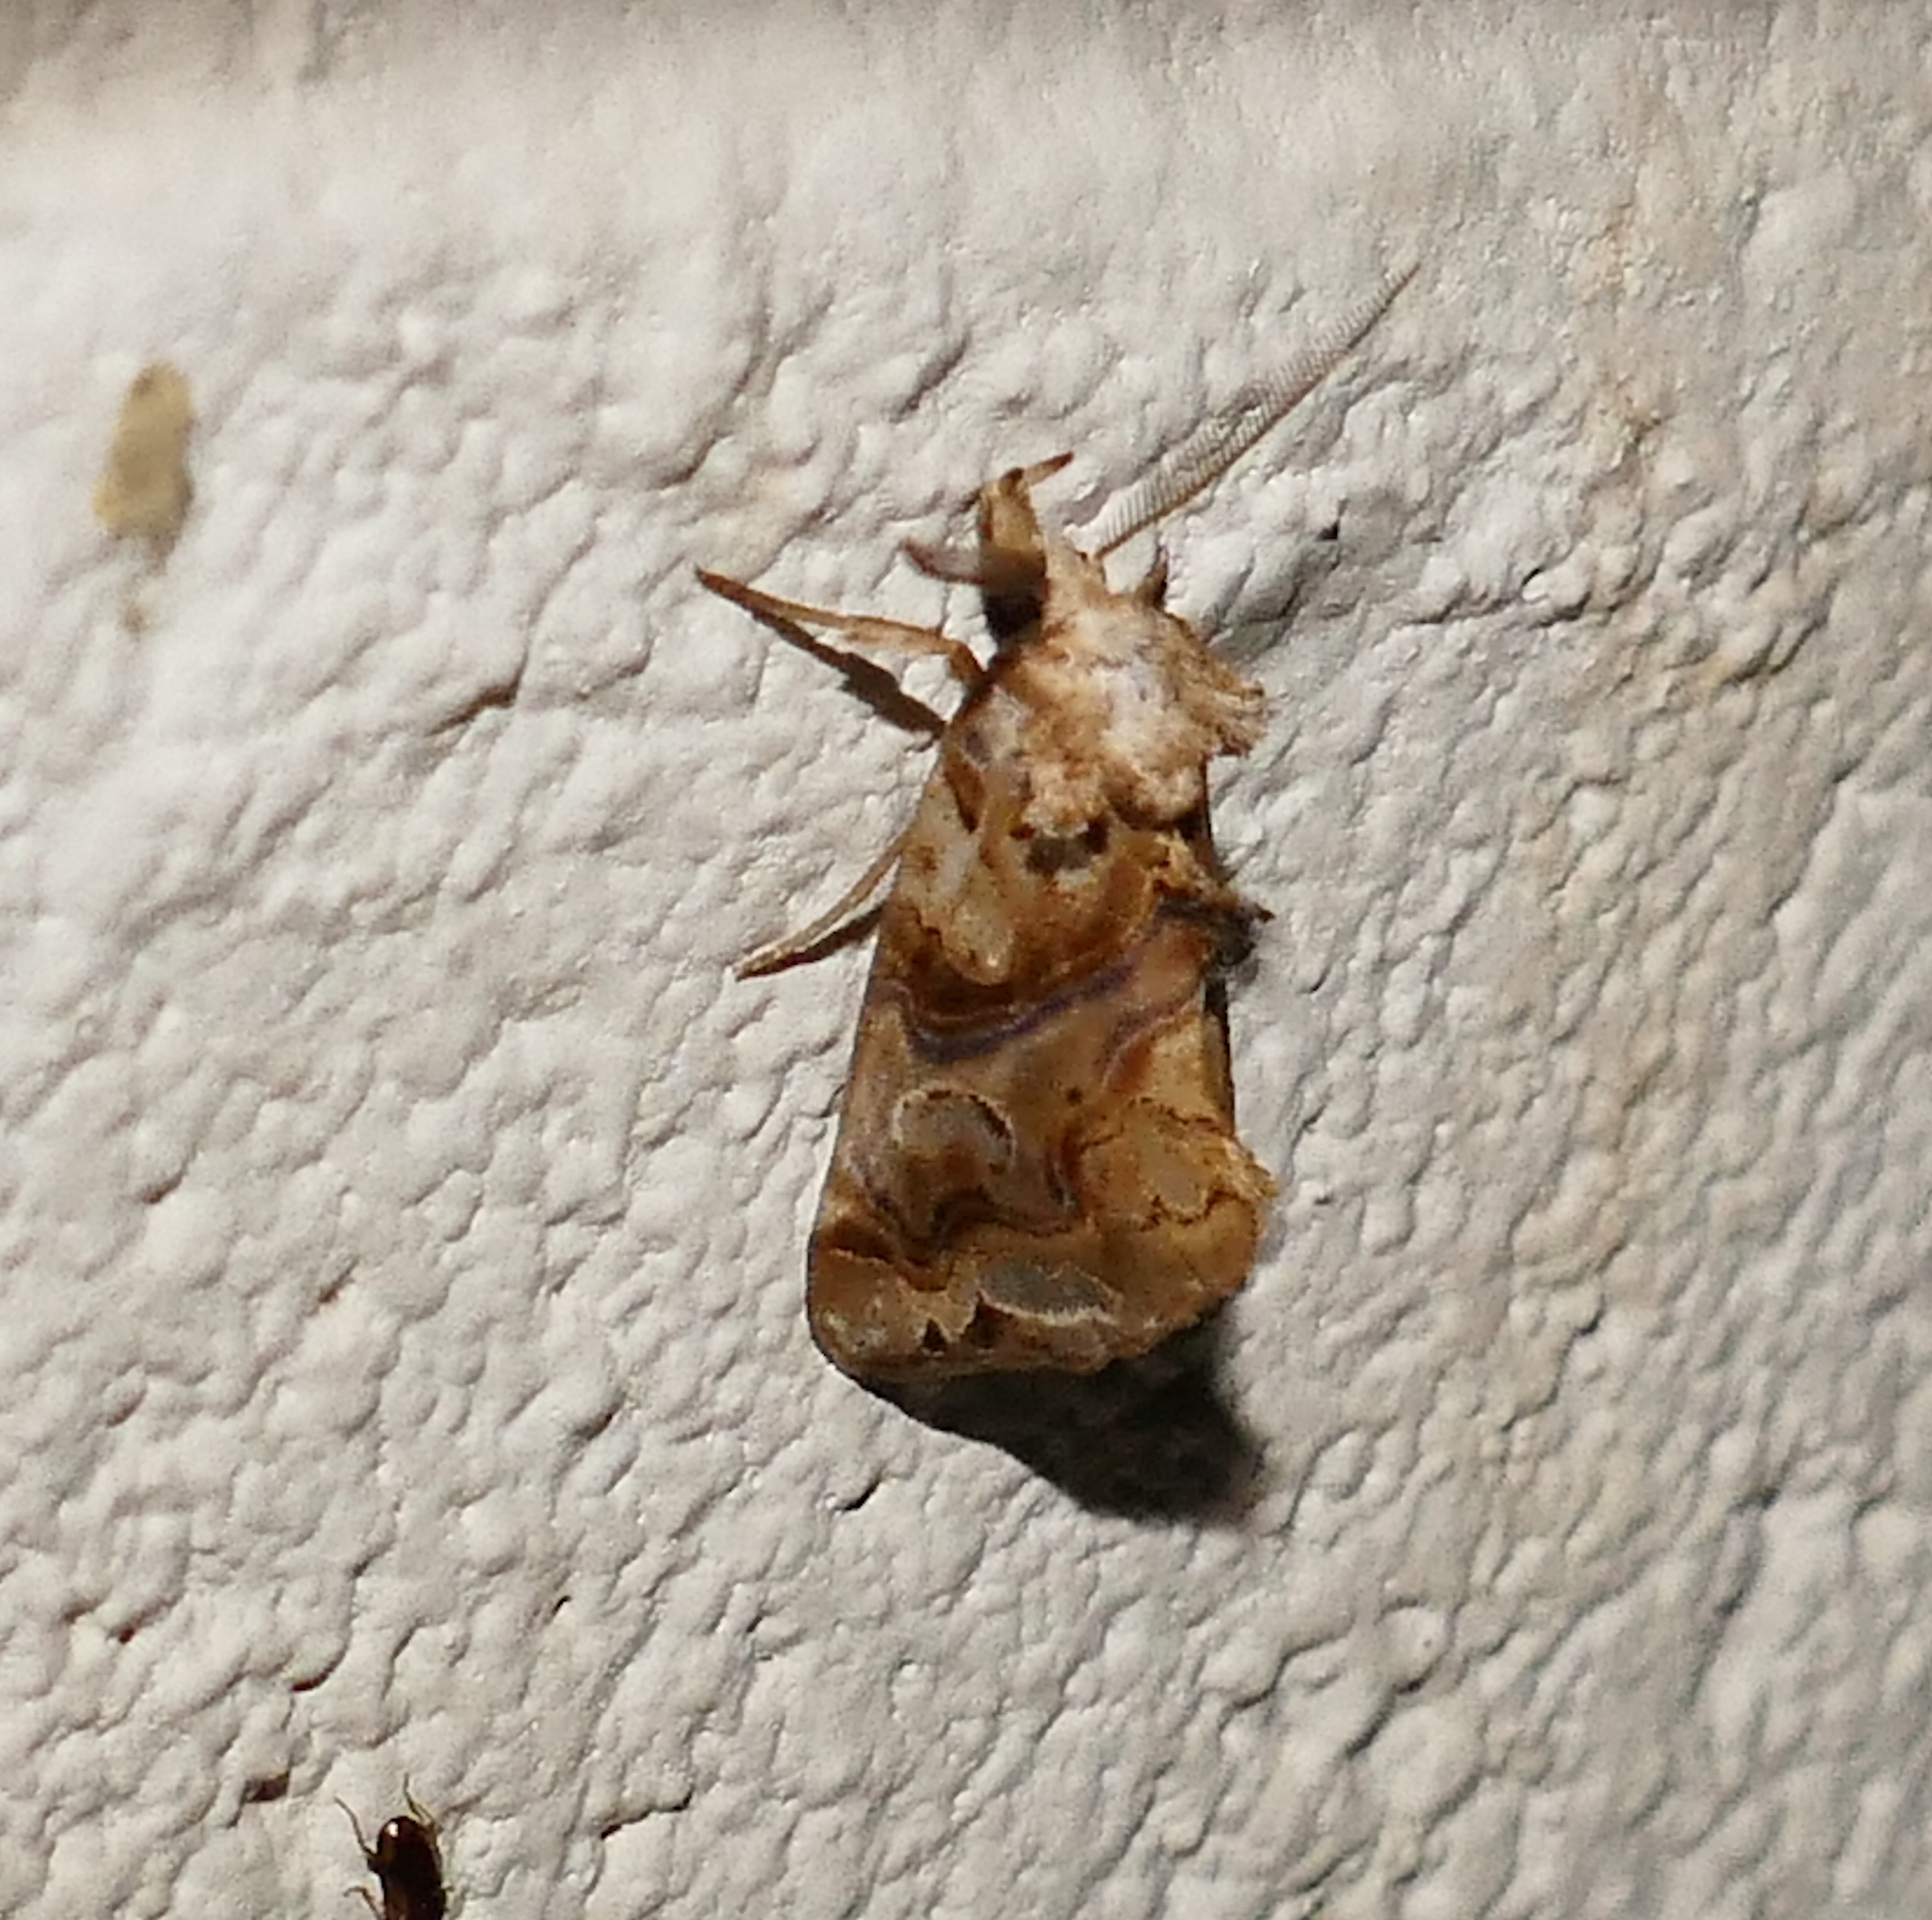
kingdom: Animalia
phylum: Arthropoda
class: Insecta
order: Lepidoptera
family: Erebidae
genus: Plusiodonta
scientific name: Plusiodonta compressipalpis
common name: Moonseed moth
